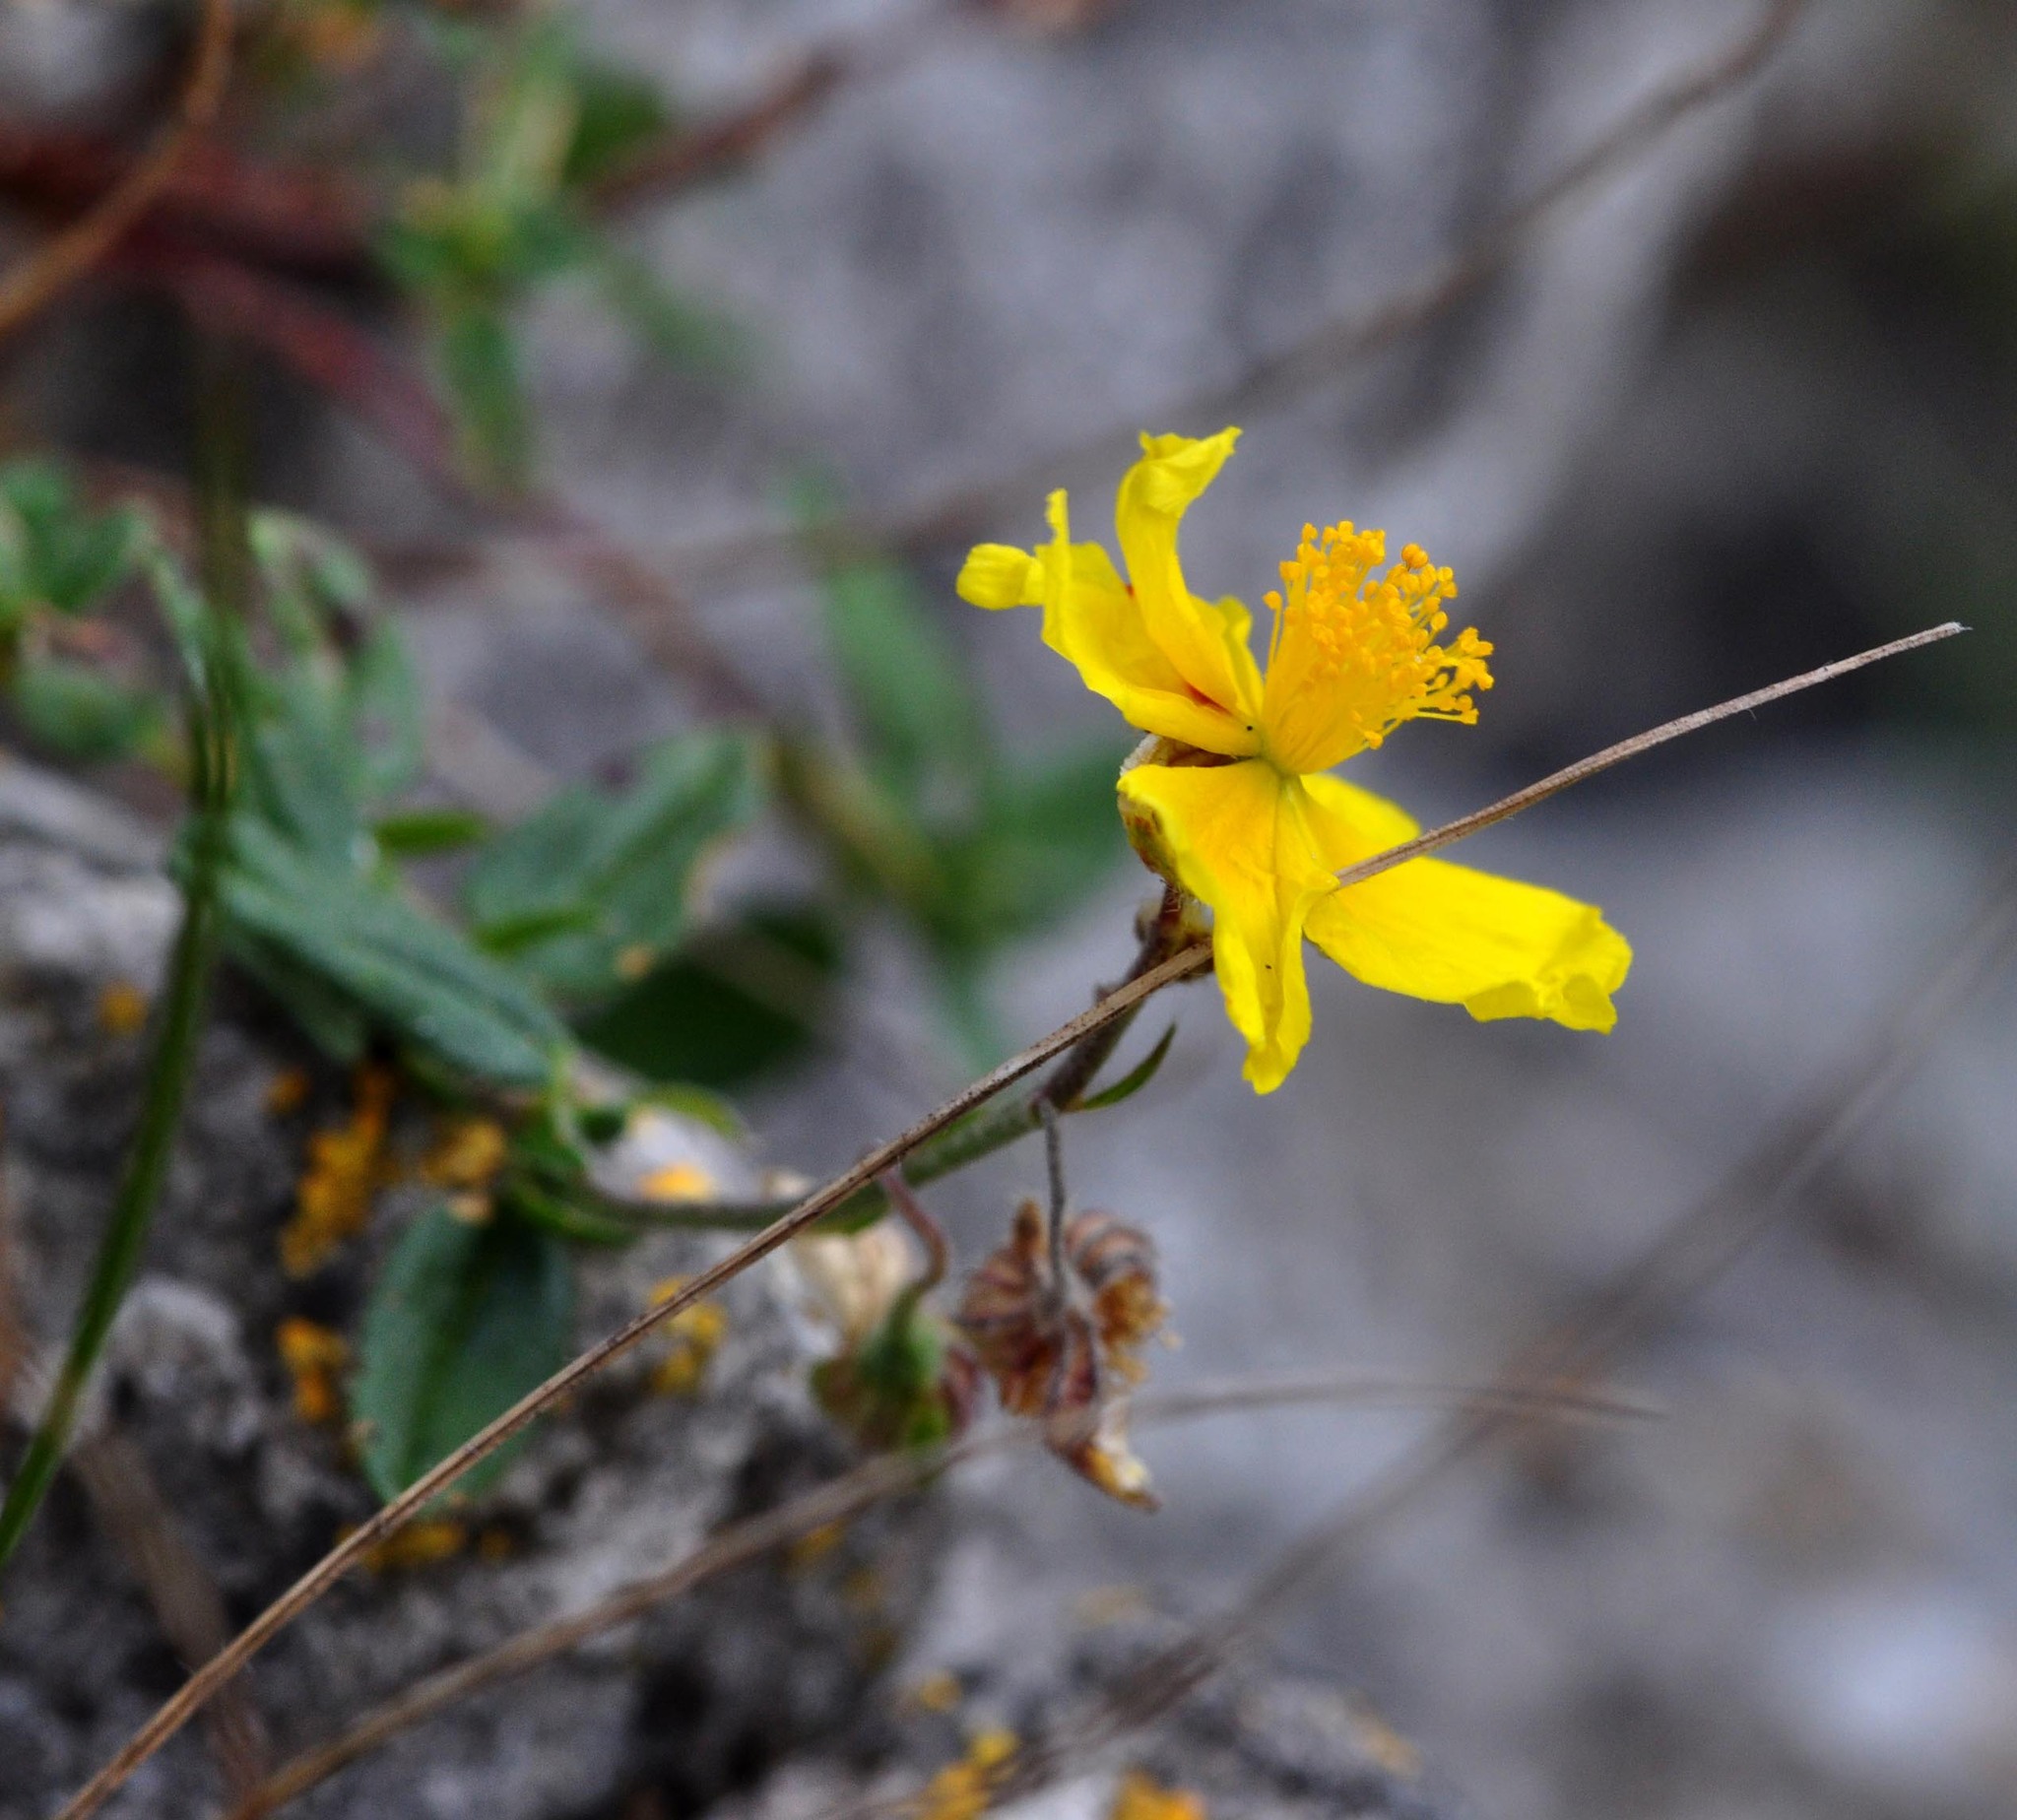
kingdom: Plantae
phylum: Tracheophyta
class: Magnoliopsida
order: Malvales
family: Cistaceae
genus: Helianthemum
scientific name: Helianthemum nummularium
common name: Common rock-rose
